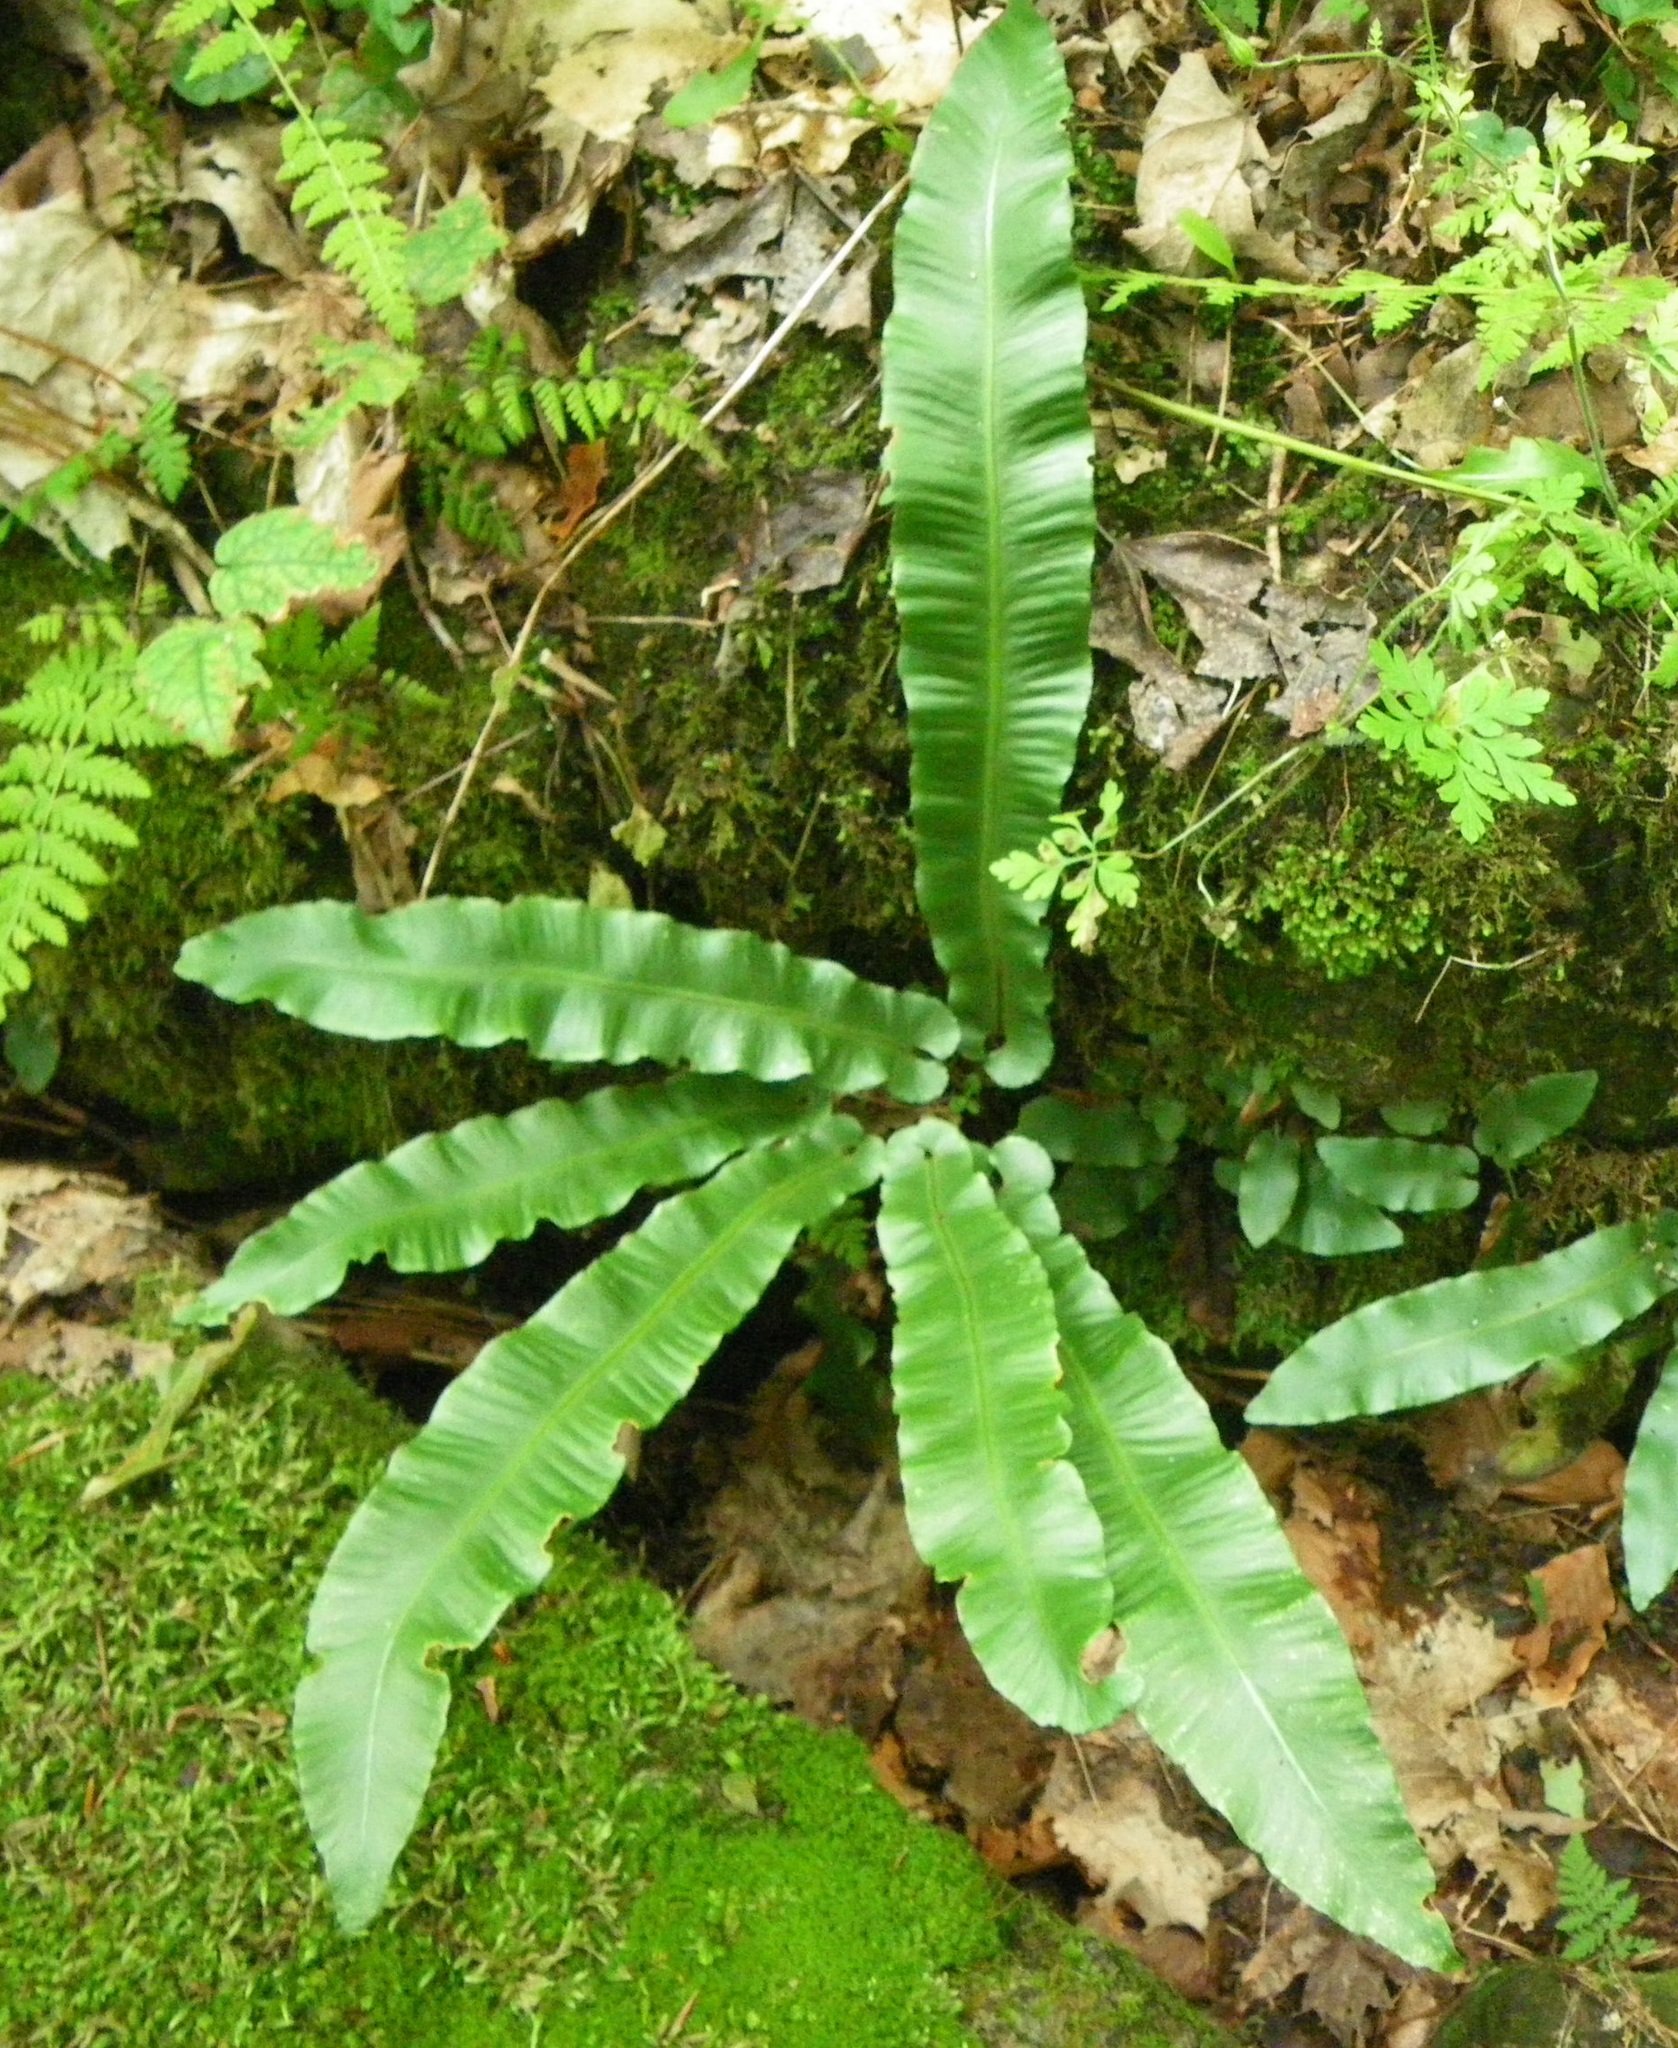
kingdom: Plantae
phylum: Tracheophyta
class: Polypodiopsida
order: Polypodiales
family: Aspleniaceae
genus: Asplenium
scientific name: Asplenium scolopendrium
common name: Hart's-tongue fern
